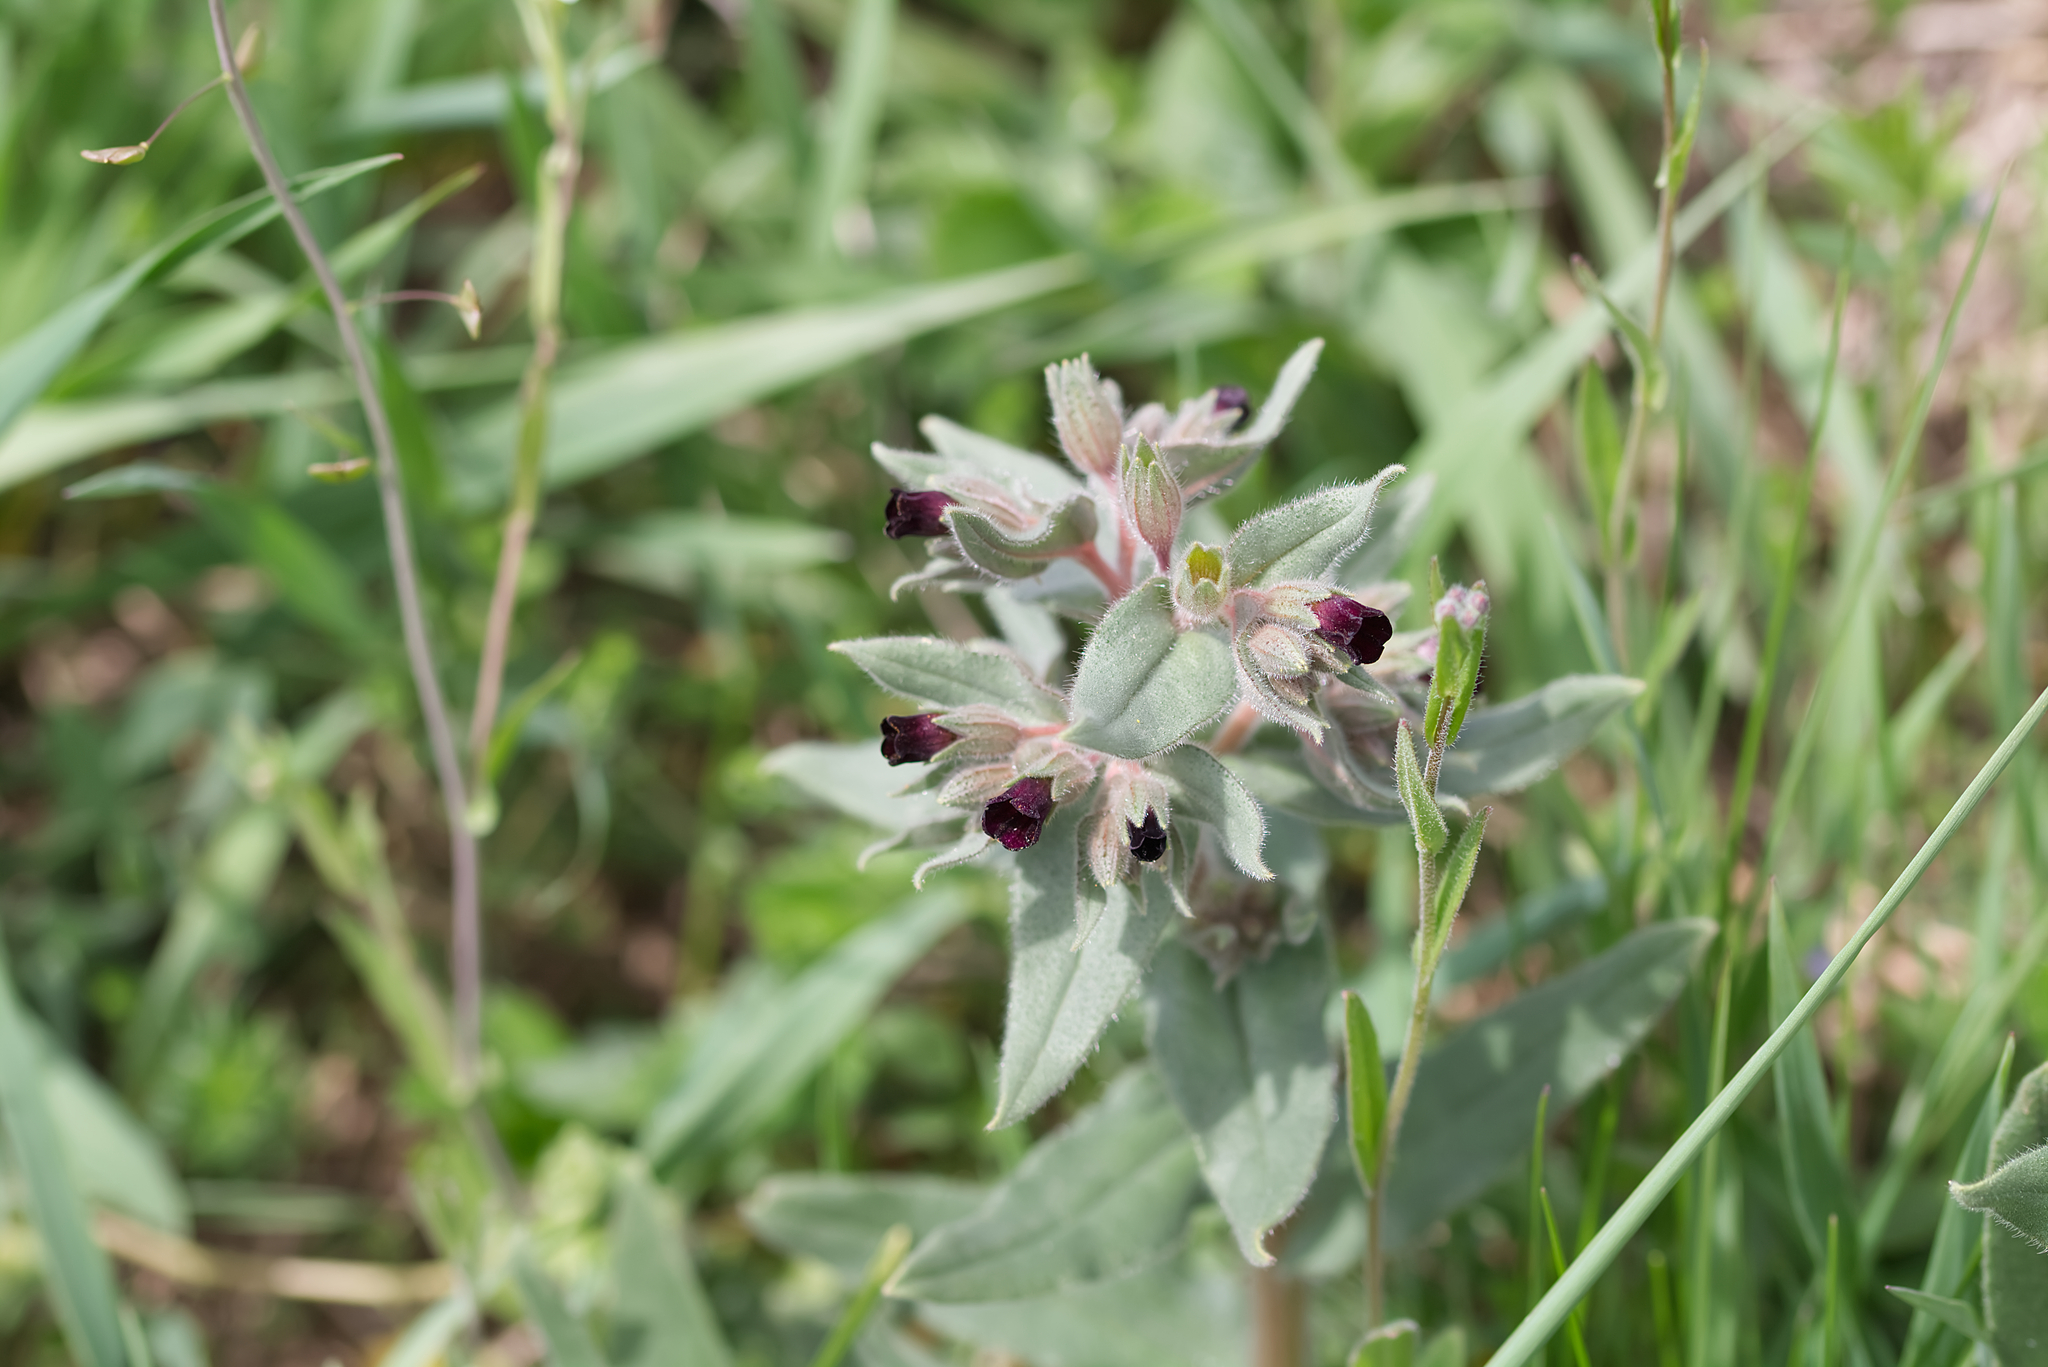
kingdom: Plantae
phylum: Tracheophyta
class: Magnoliopsida
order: Boraginales
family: Boraginaceae
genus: Nonea
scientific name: Nonea pulla
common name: Brown nonea
